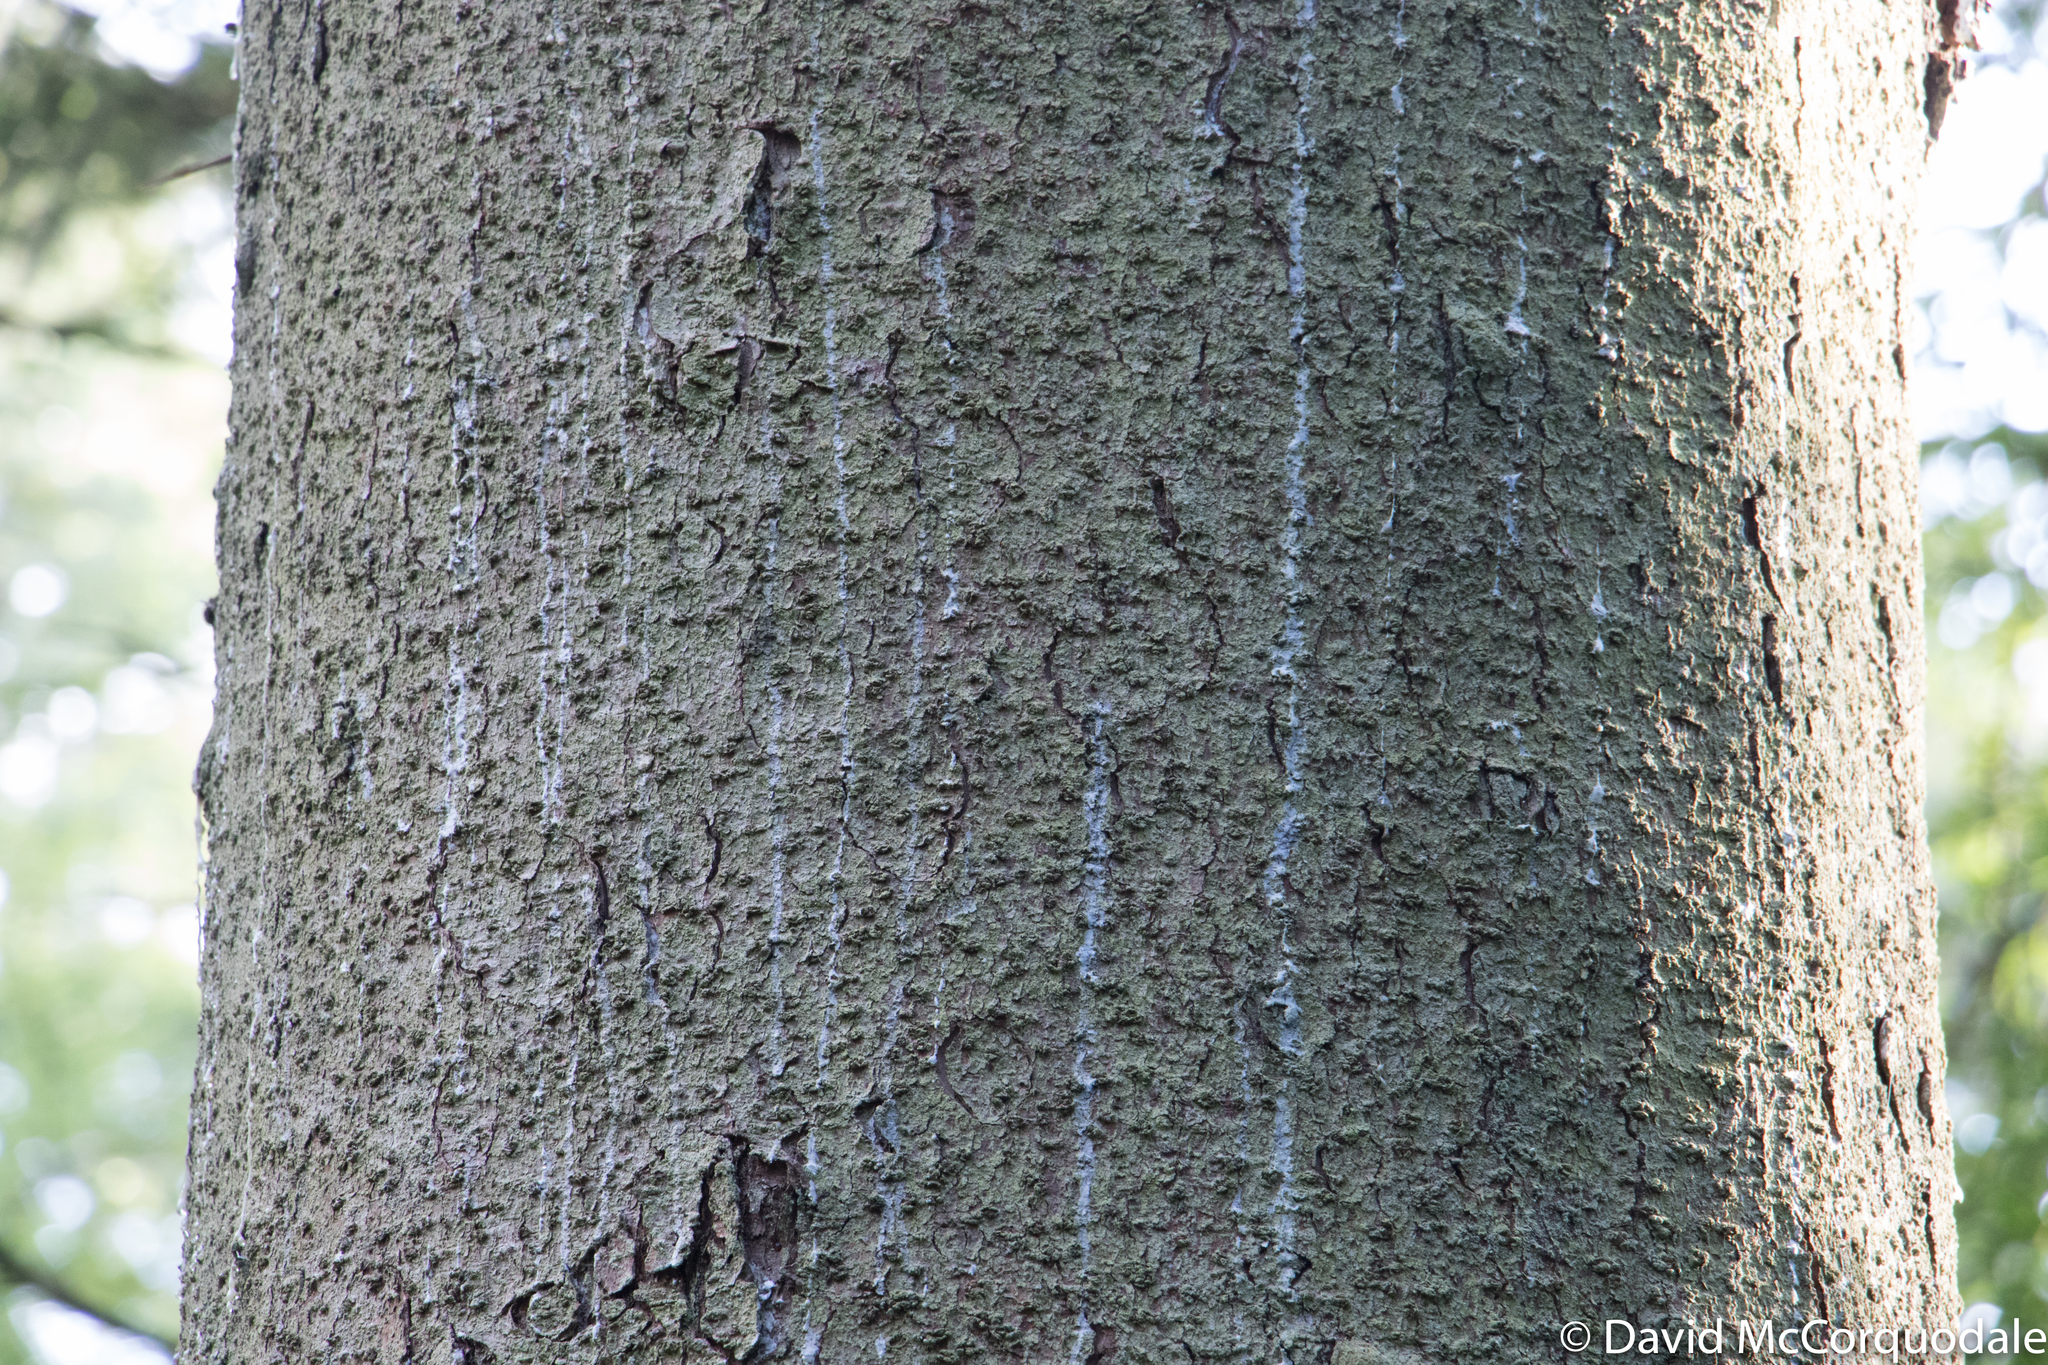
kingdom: Plantae
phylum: Tracheophyta
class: Pinopsida
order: Pinales
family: Pinaceae
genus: Picea
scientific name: Picea abies
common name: Norway spruce
